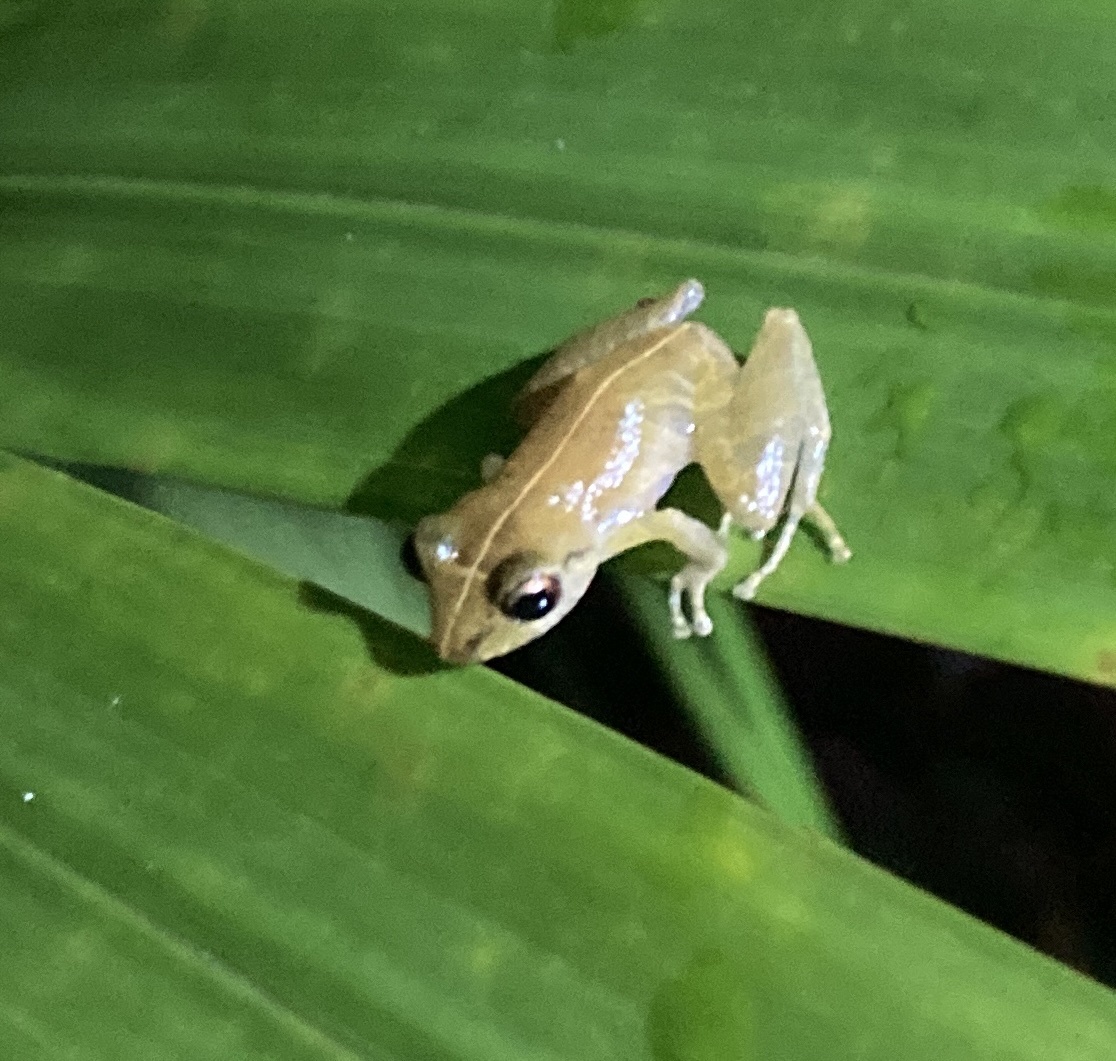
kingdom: Animalia
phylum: Chordata
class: Amphibia
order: Anura
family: Craugastoridae
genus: Pristimantis
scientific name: Pristimantis ridens
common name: Rio san juan robber frog
